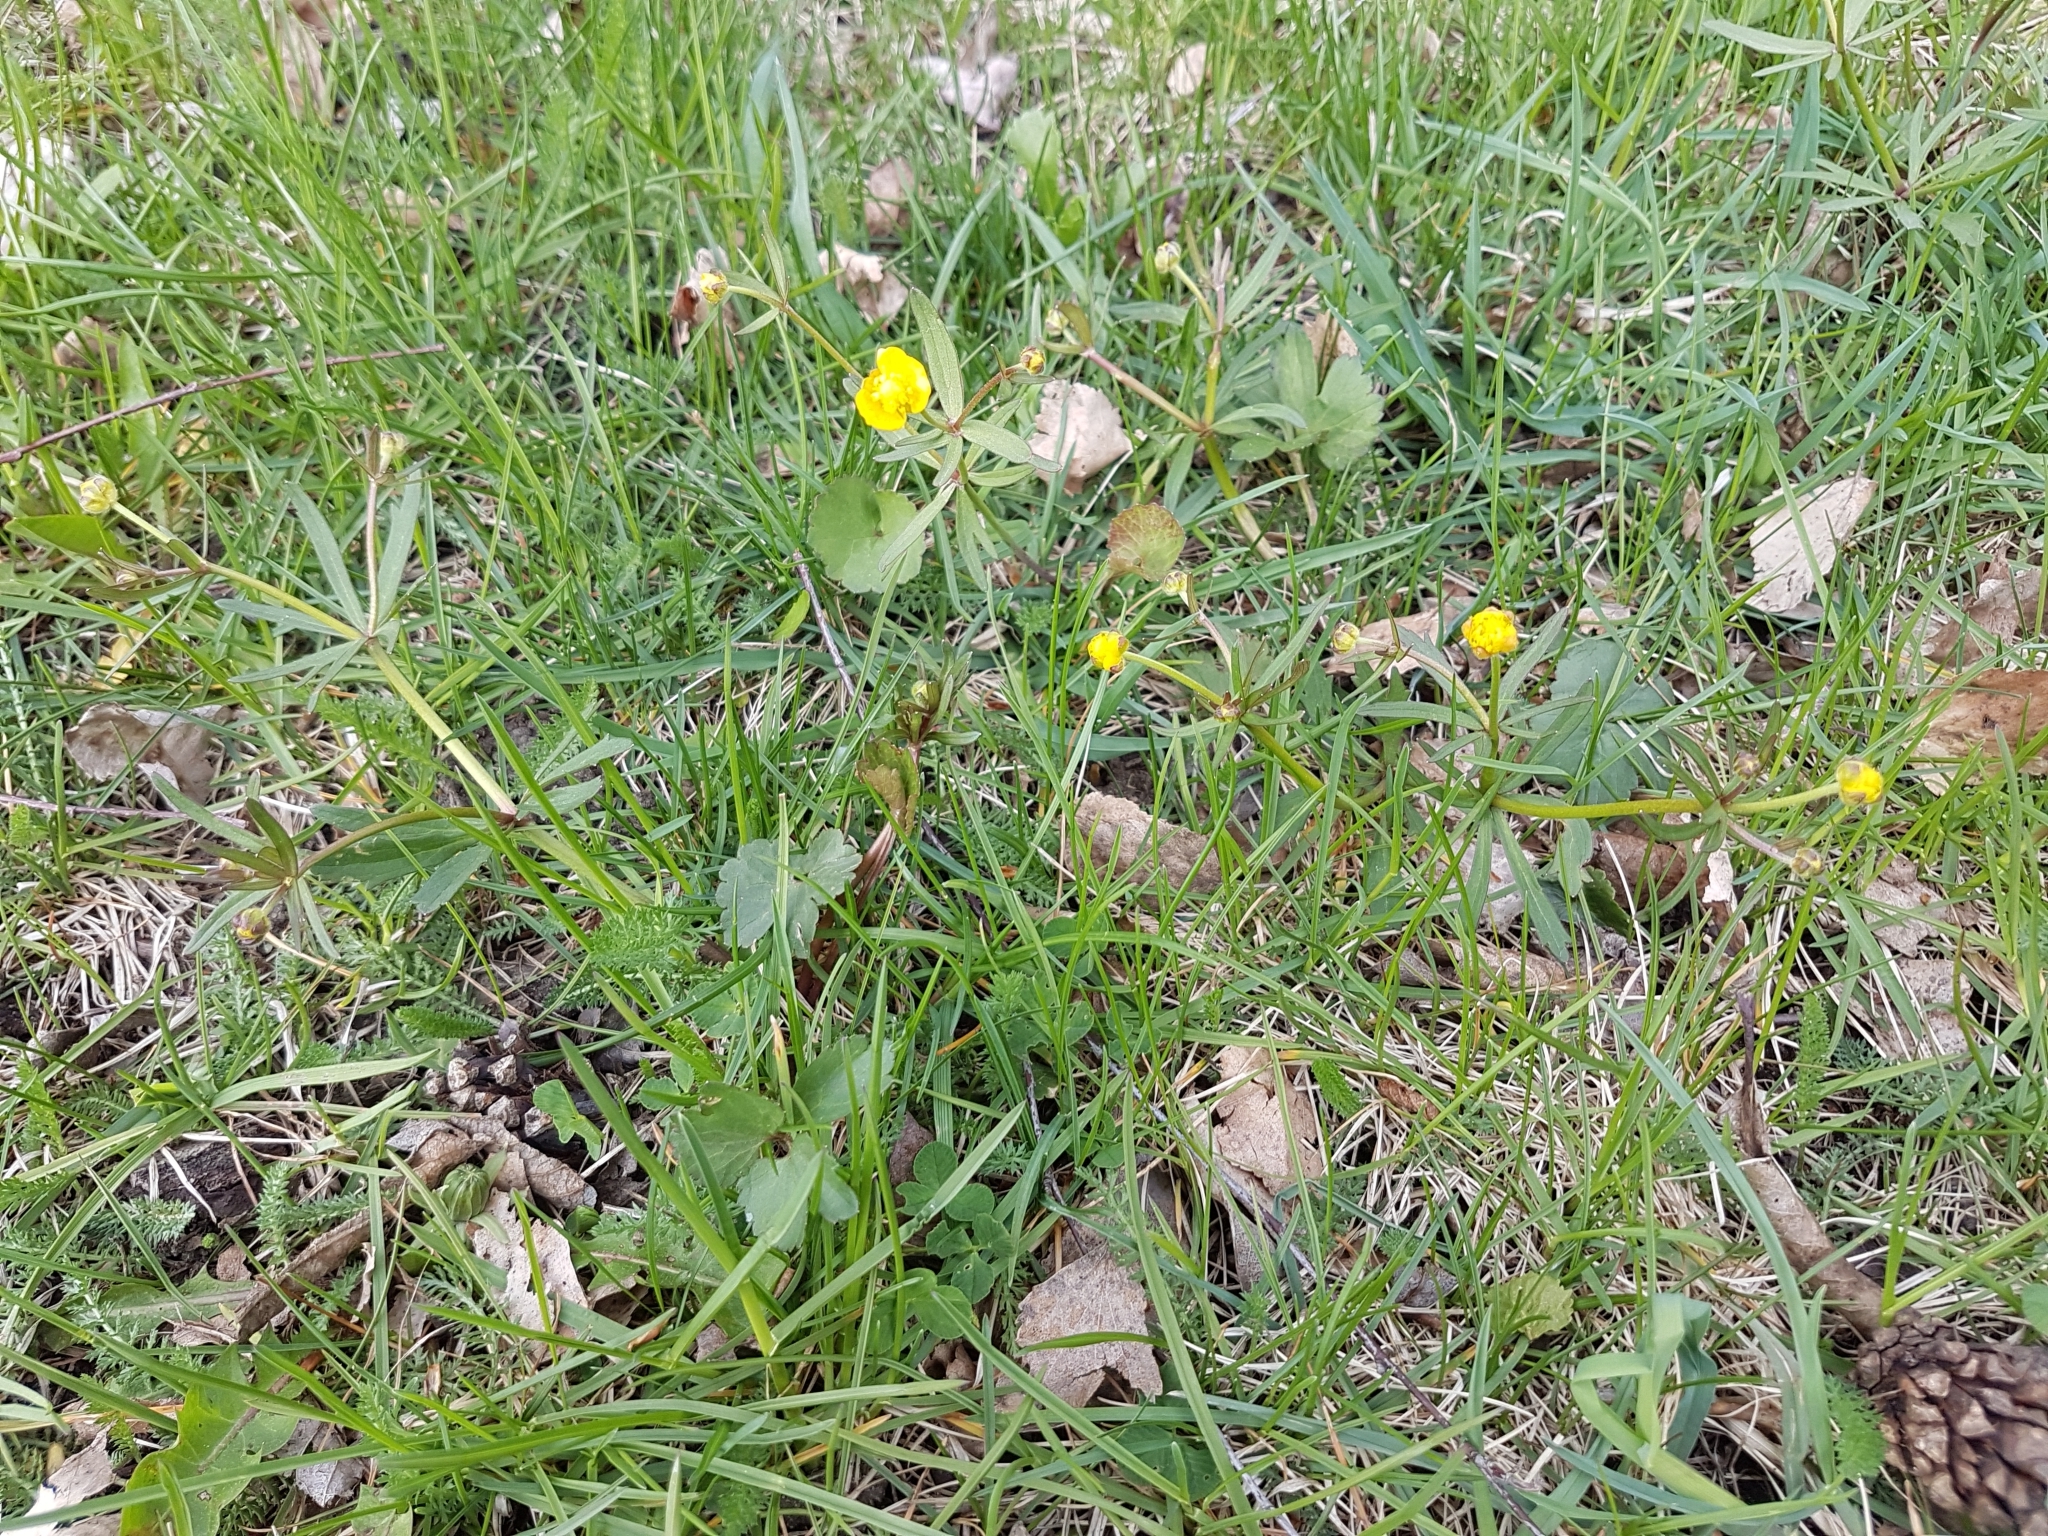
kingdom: Plantae
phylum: Tracheophyta
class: Magnoliopsida
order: Ranunculales
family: Ranunculaceae
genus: Ranunculus
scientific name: Ranunculus auricomus
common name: Goldilocks buttercup
